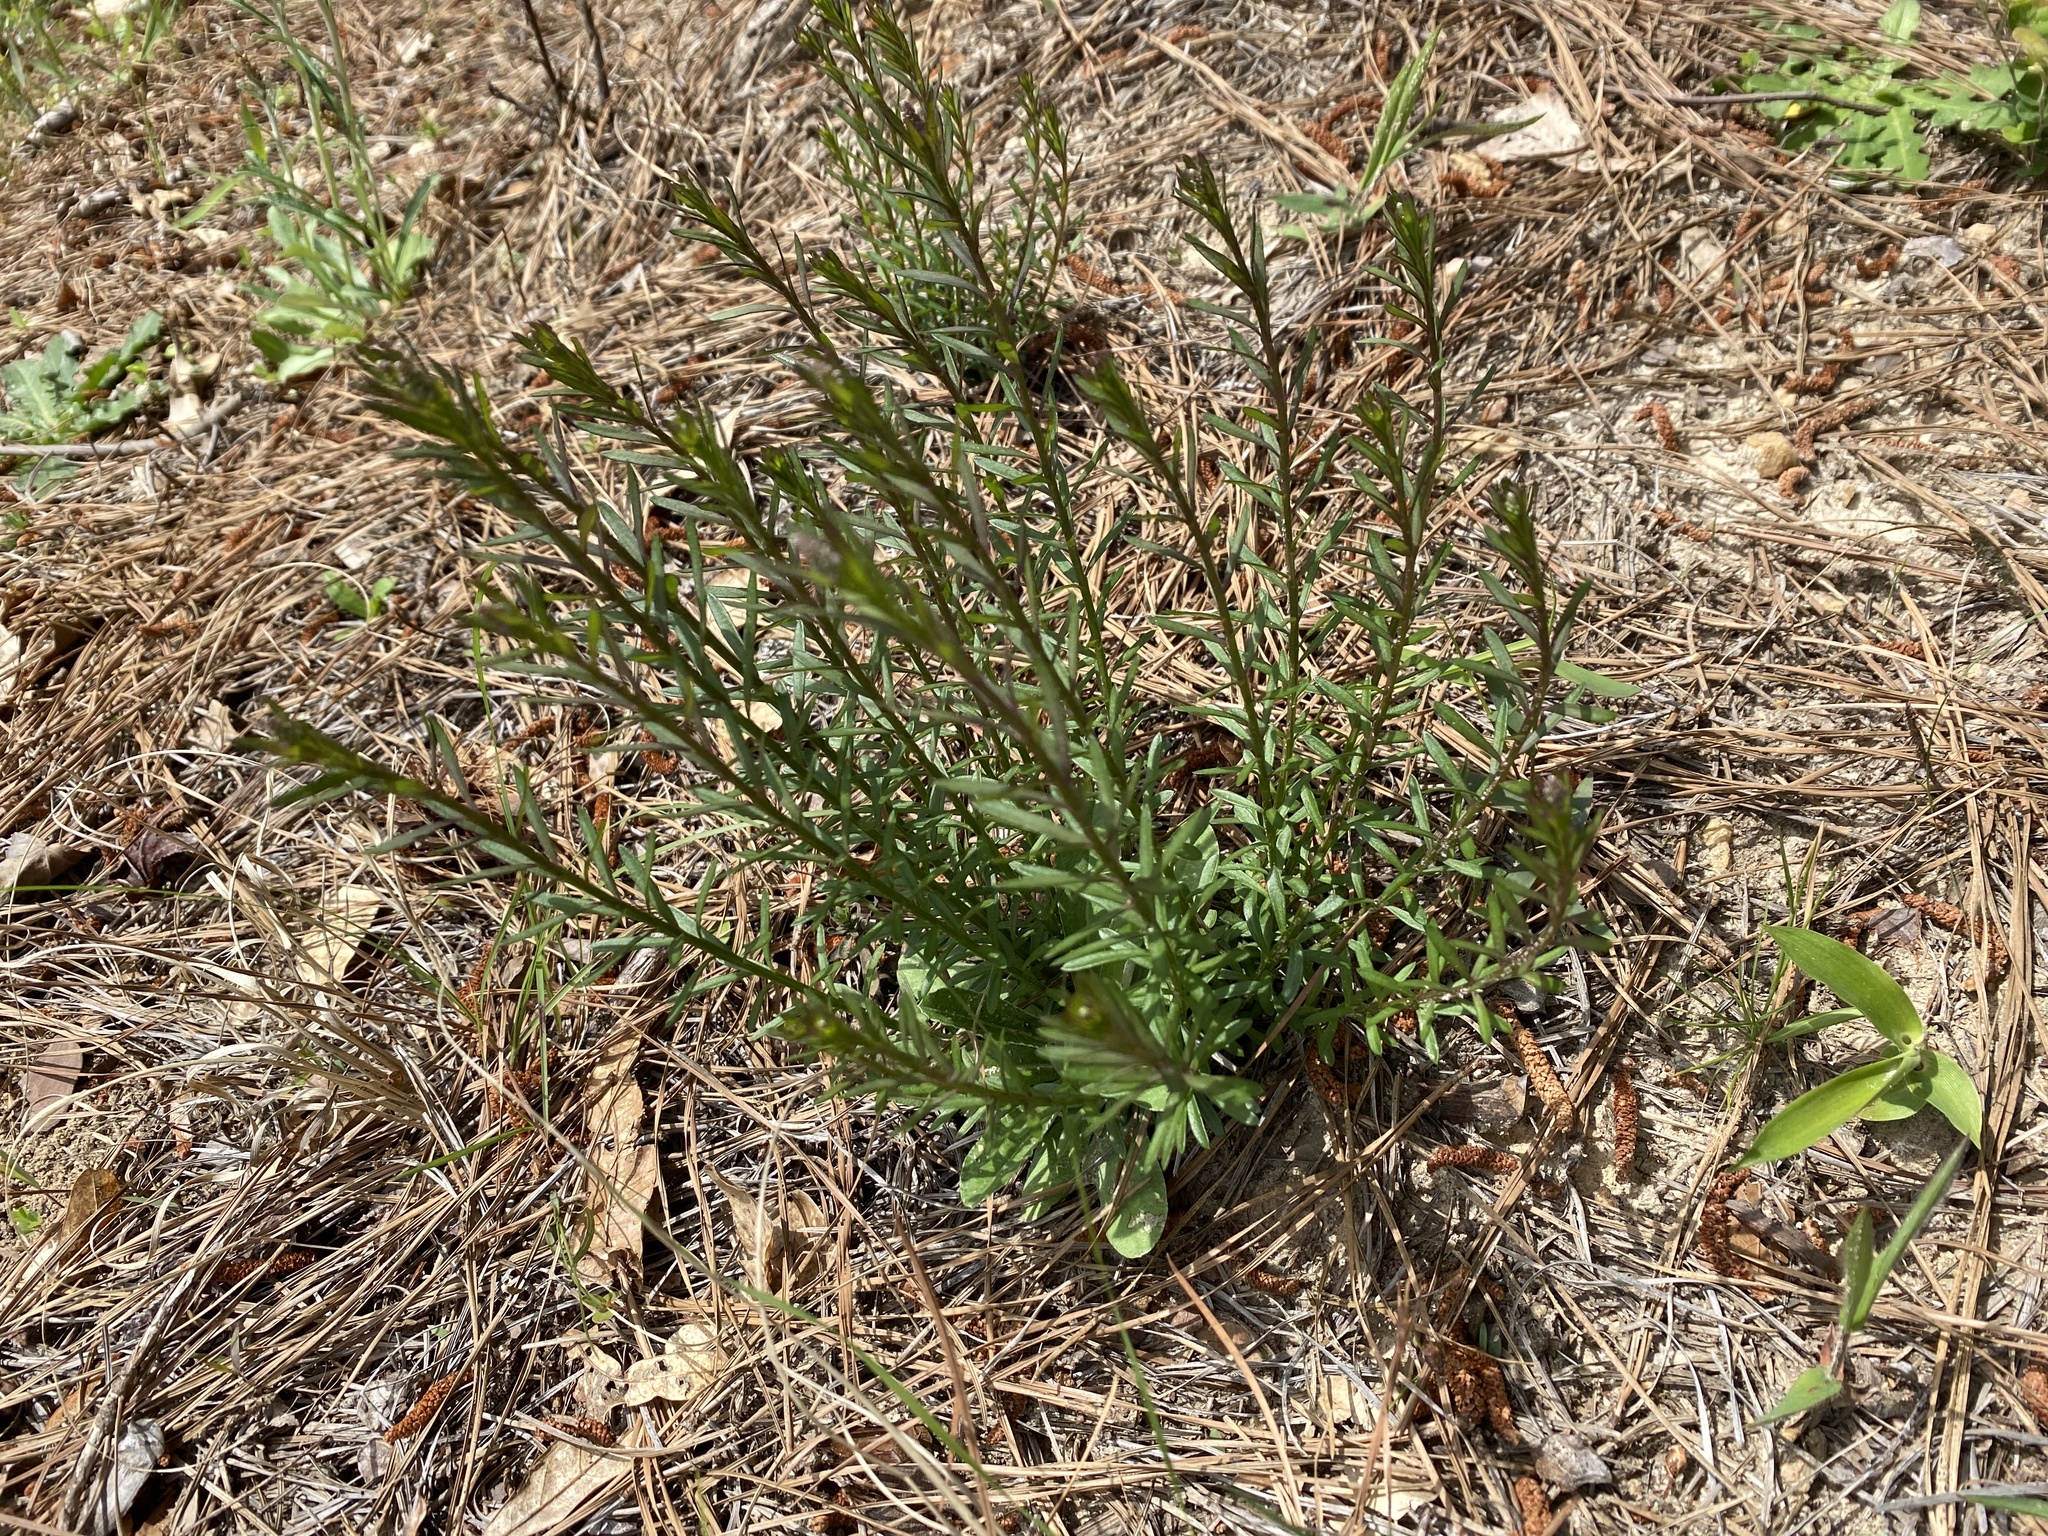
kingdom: Plantae
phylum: Tracheophyta
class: Magnoliopsida
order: Fabales
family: Polygalaceae
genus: Polygala
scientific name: Polygala polygama
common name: Bitter milkwort
